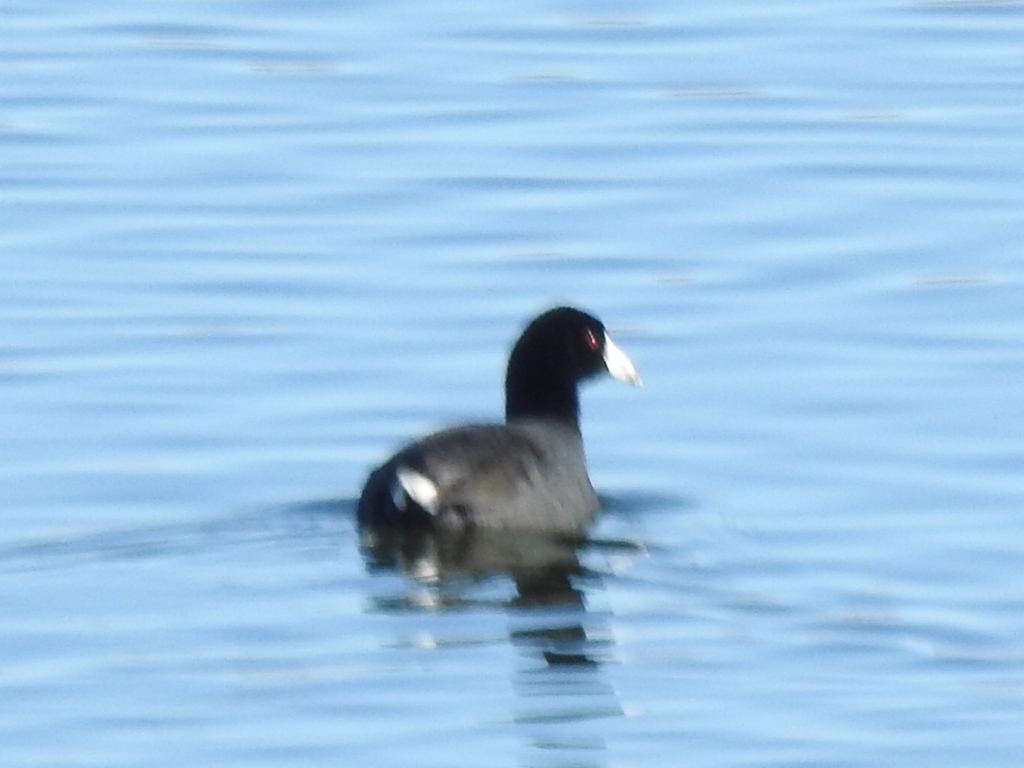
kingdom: Animalia
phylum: Chordata
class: Aves
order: Gruiformes
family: Rallidae
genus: Fulica
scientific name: Fulica americana
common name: American coot
